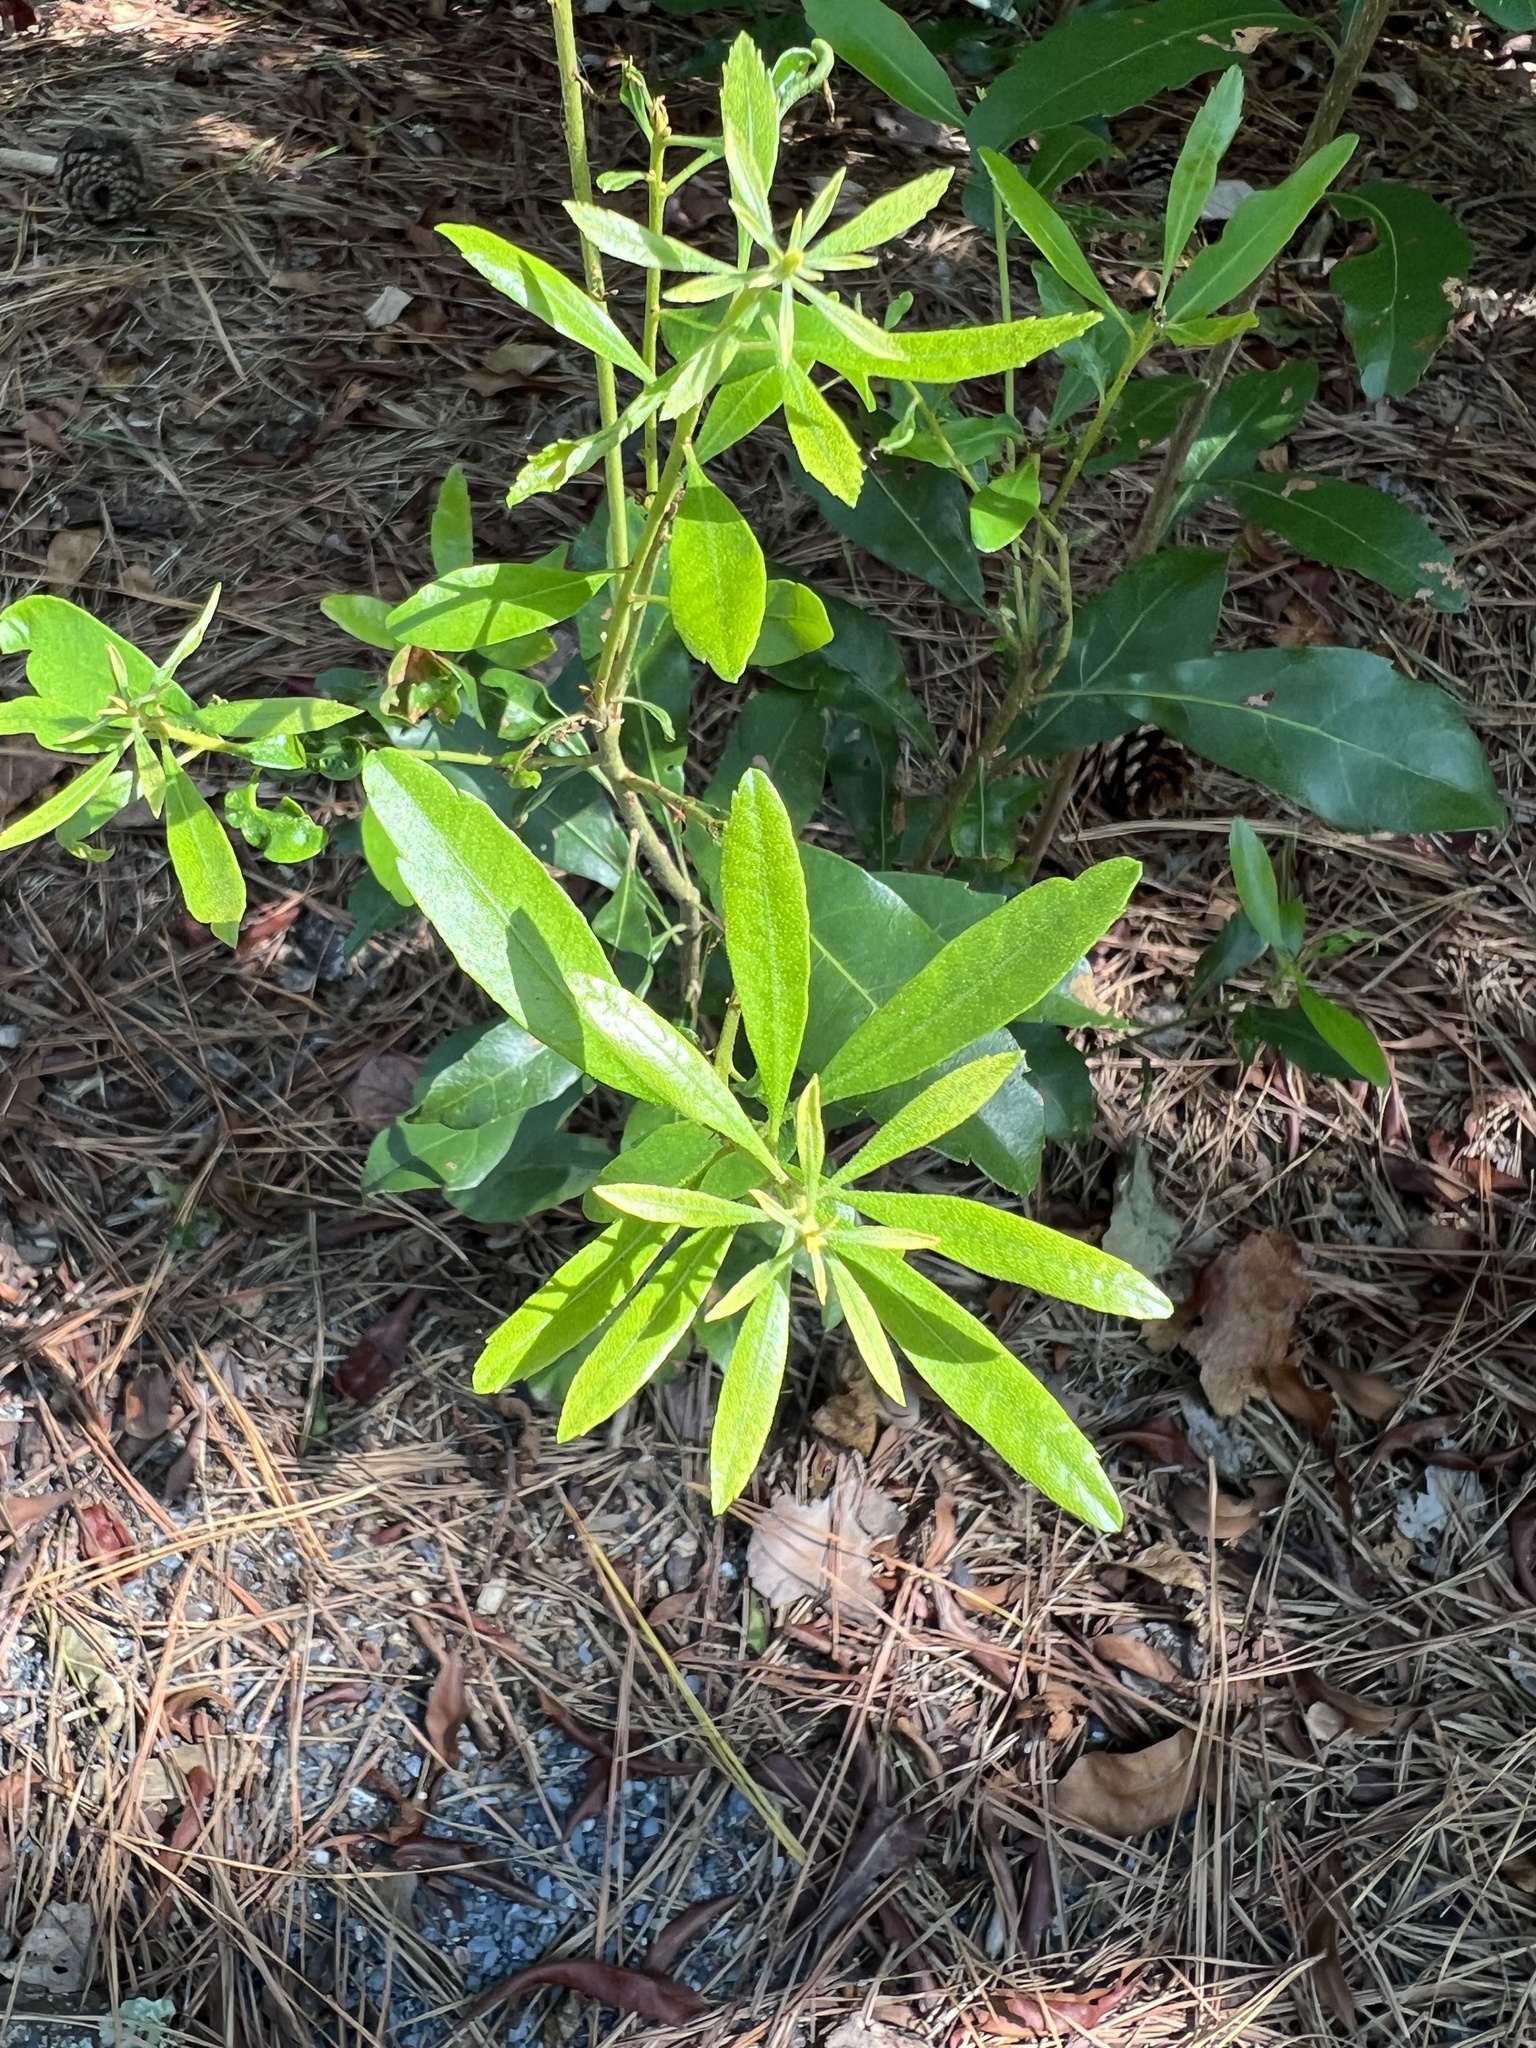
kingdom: Plantae
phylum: Tracheophyta
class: Magnoliopsida
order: Fagales
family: Myricaceae
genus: Morella
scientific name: Morella cerifera
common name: Wax myrtle
